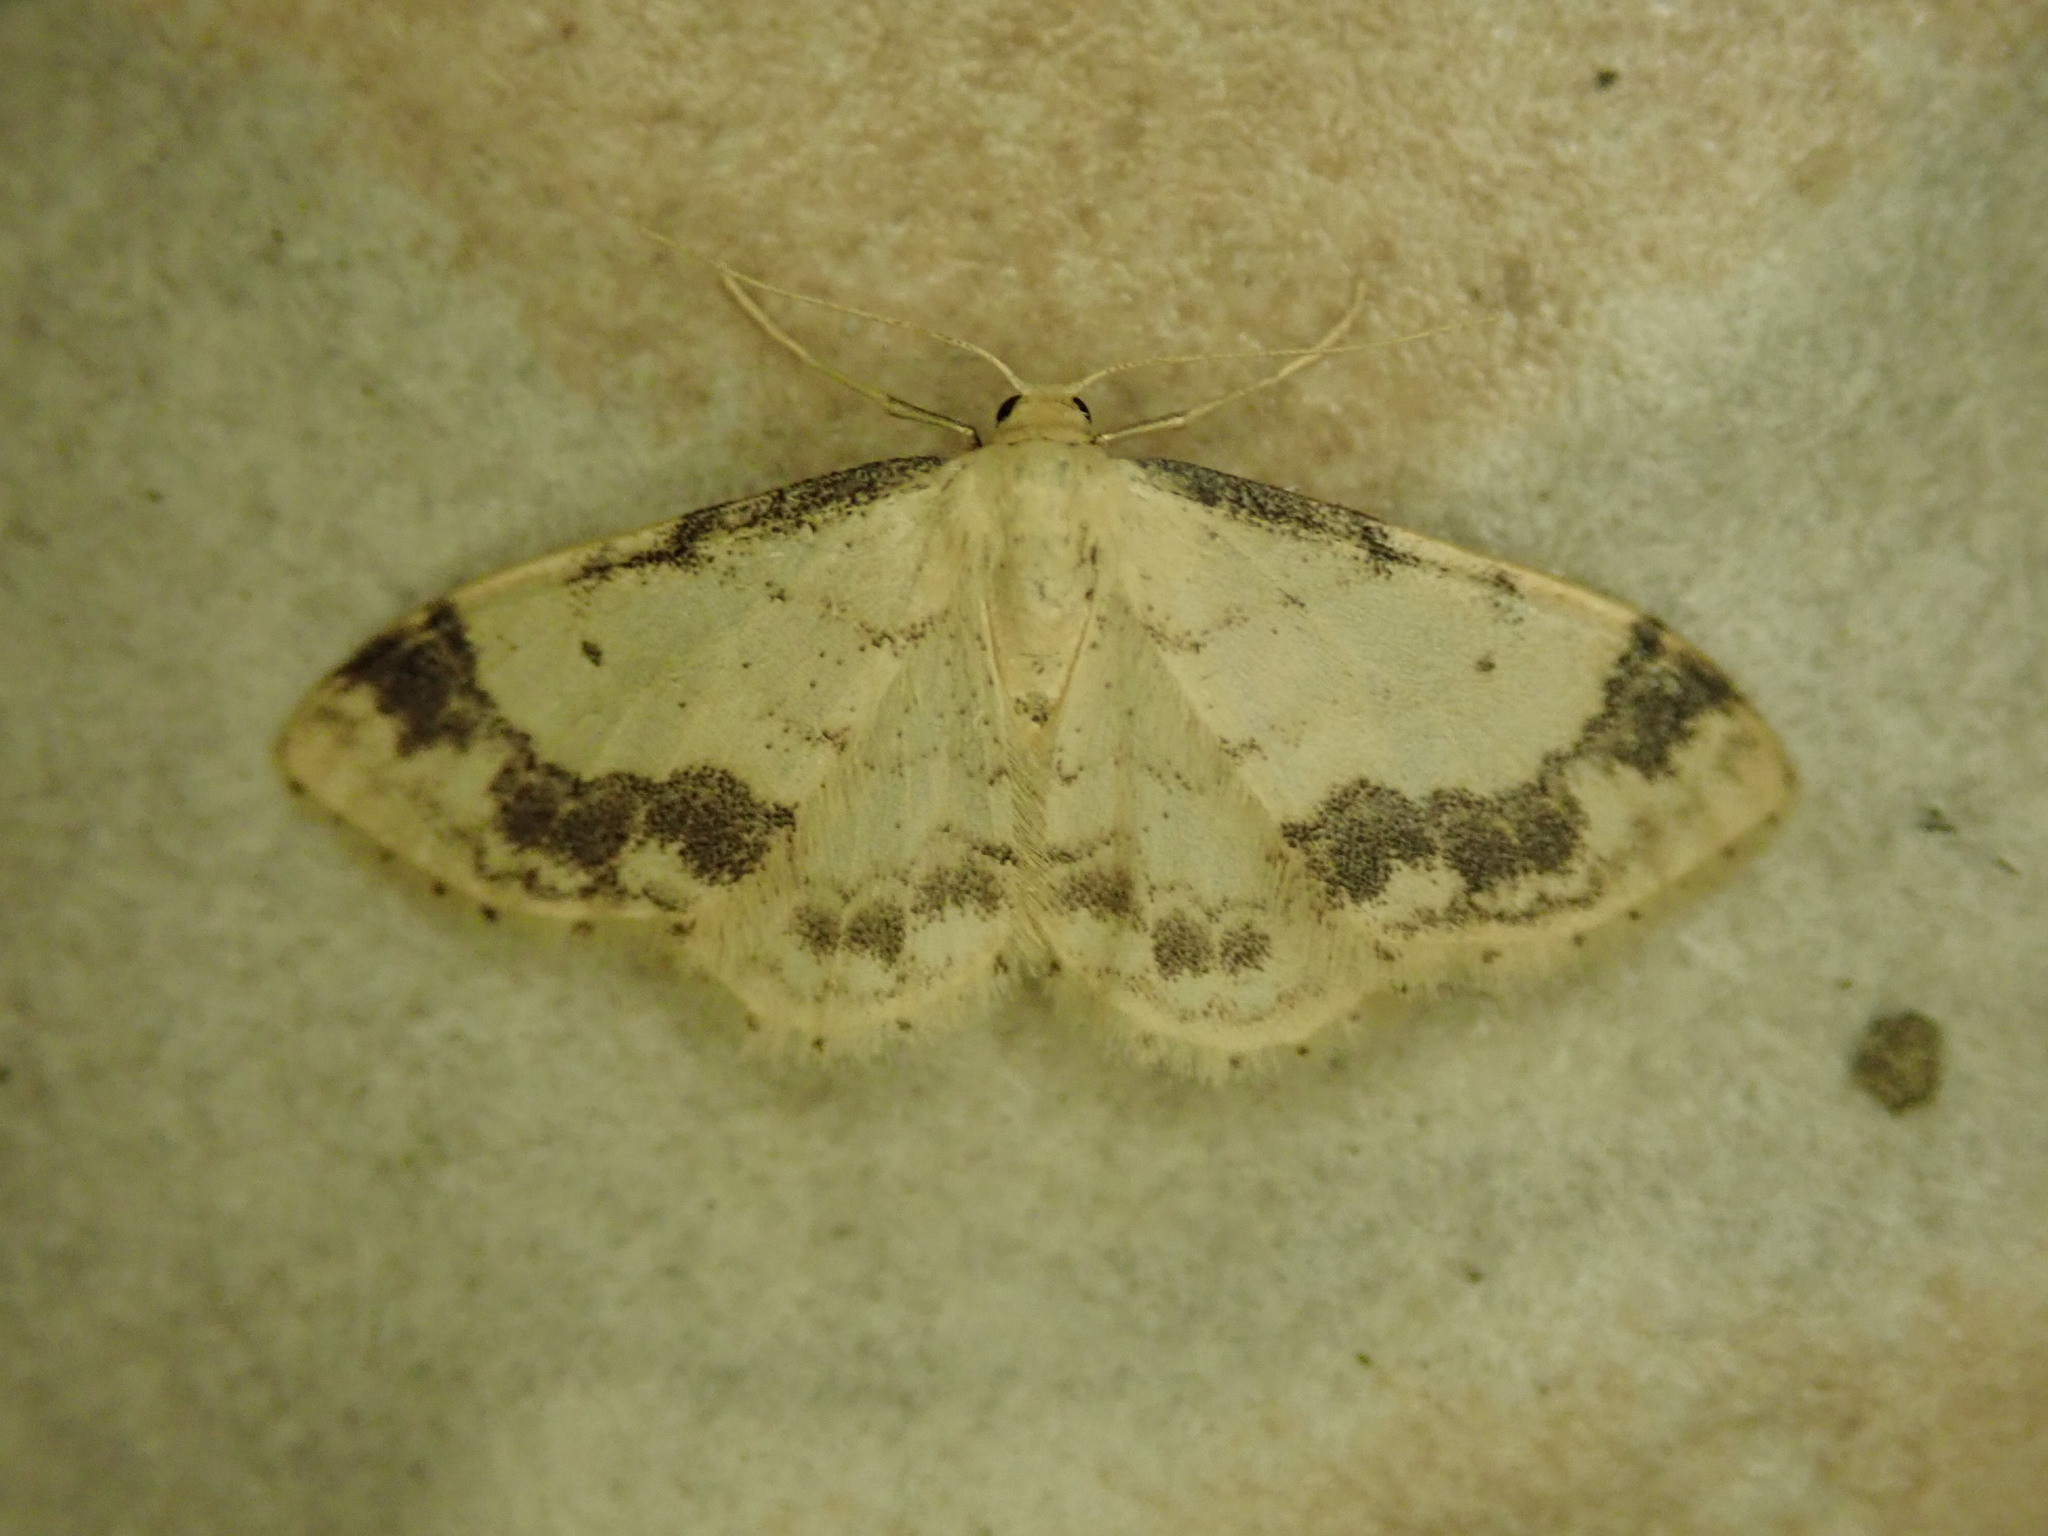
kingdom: Animalia
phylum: Arthropoda
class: Insecta
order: Lepidoptera
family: Geometridae
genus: Idaea
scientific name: Idaea trigeminata
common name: Treble brown spot
